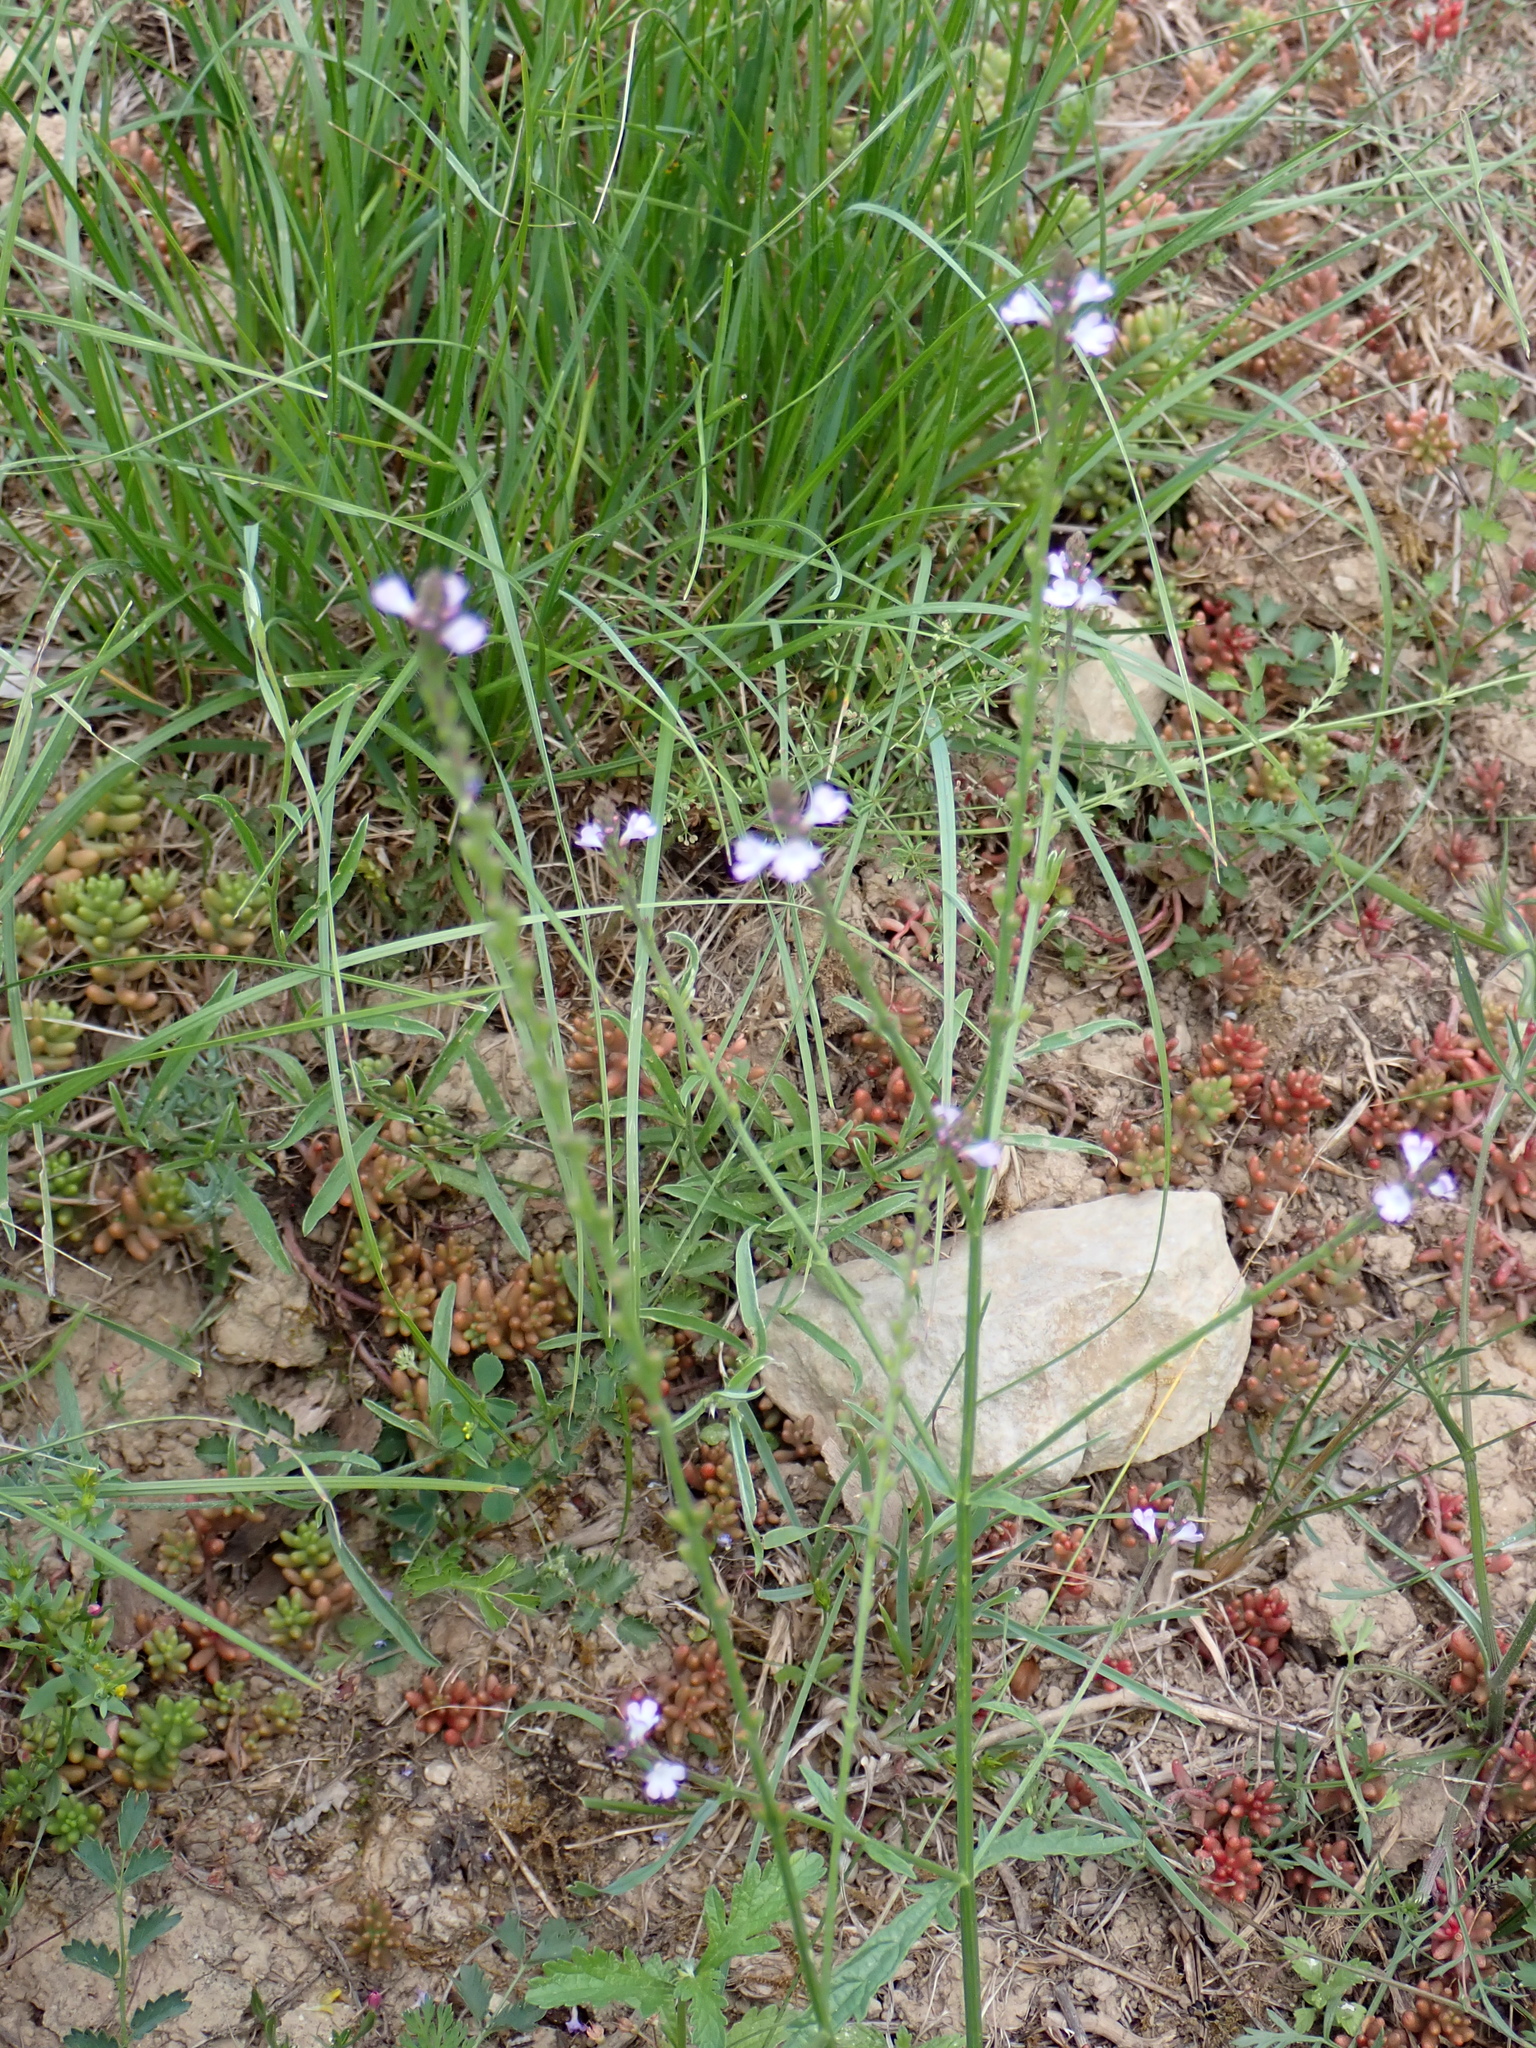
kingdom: Plantae
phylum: Tracheophyta
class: Magnoliopsida
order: Lamiales
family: Verbenaceae
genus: Verbena
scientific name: Verbena officinalis
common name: Vervain
